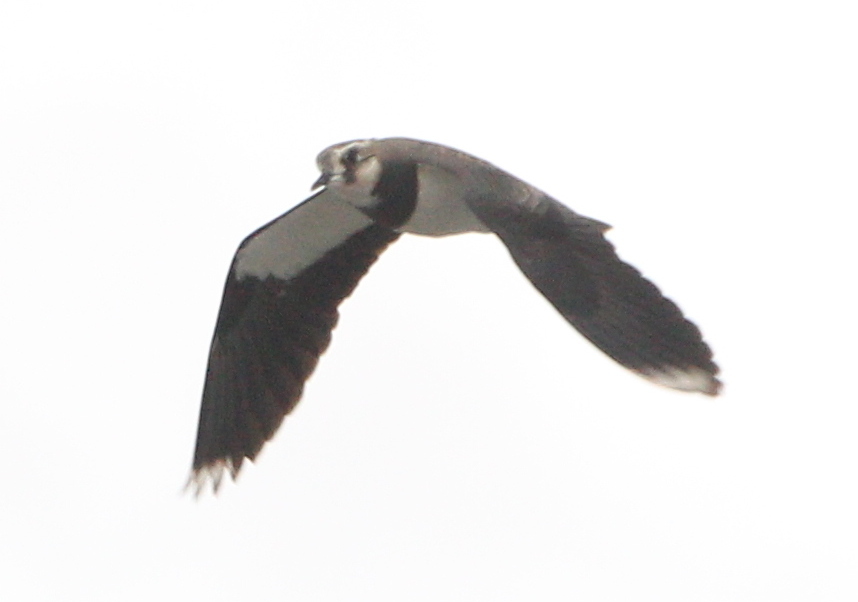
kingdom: Animalia
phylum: Chordata
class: Aves
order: Charadriiformes
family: Charadriidae
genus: Vanellus
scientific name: Vanellus vanellus
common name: Northern lapwing
